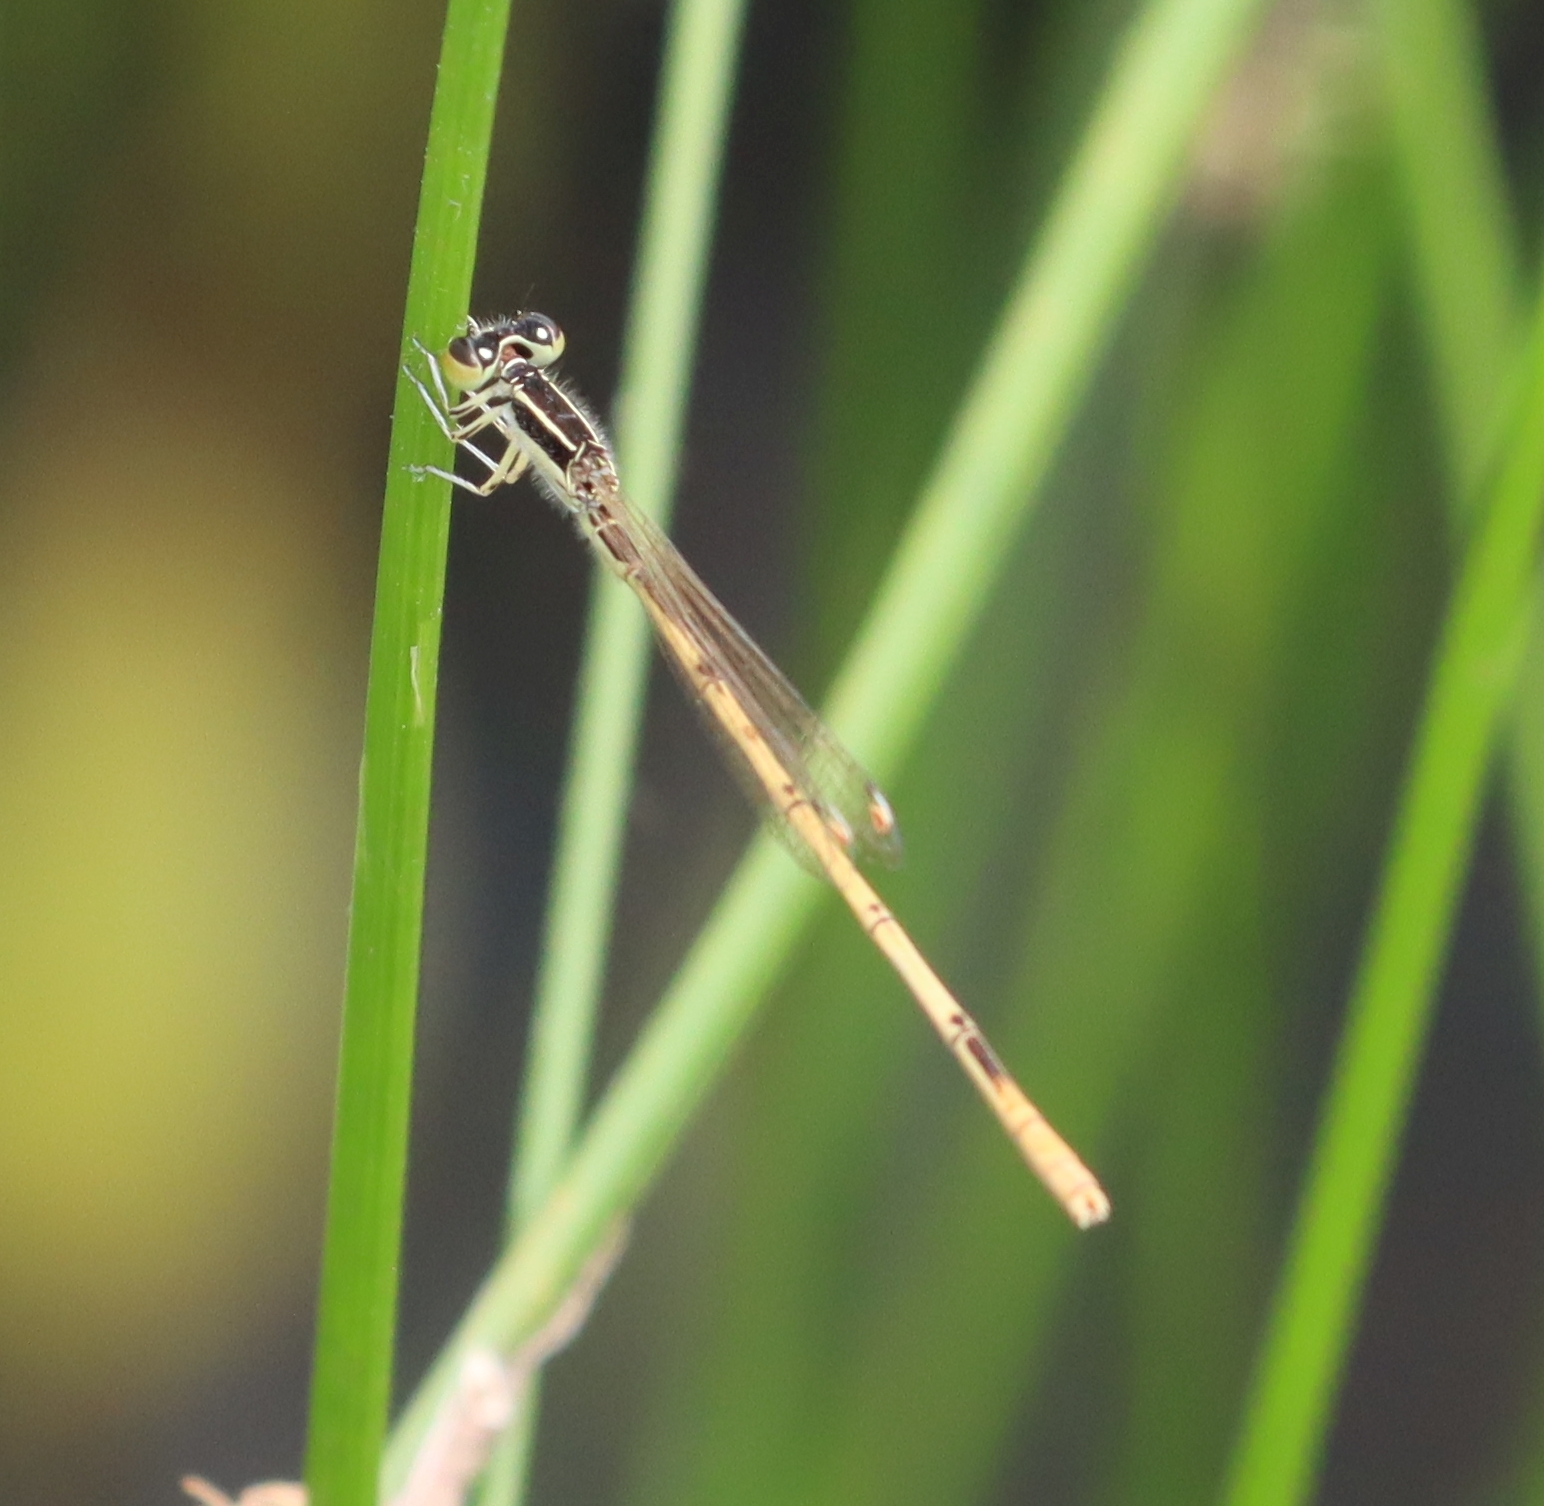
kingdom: Animalia
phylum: Arthropoda
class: Insecta
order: Odonata
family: Coenagrionidae
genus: Ischnura
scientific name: Ischnura hastata
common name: Citrine forktail
